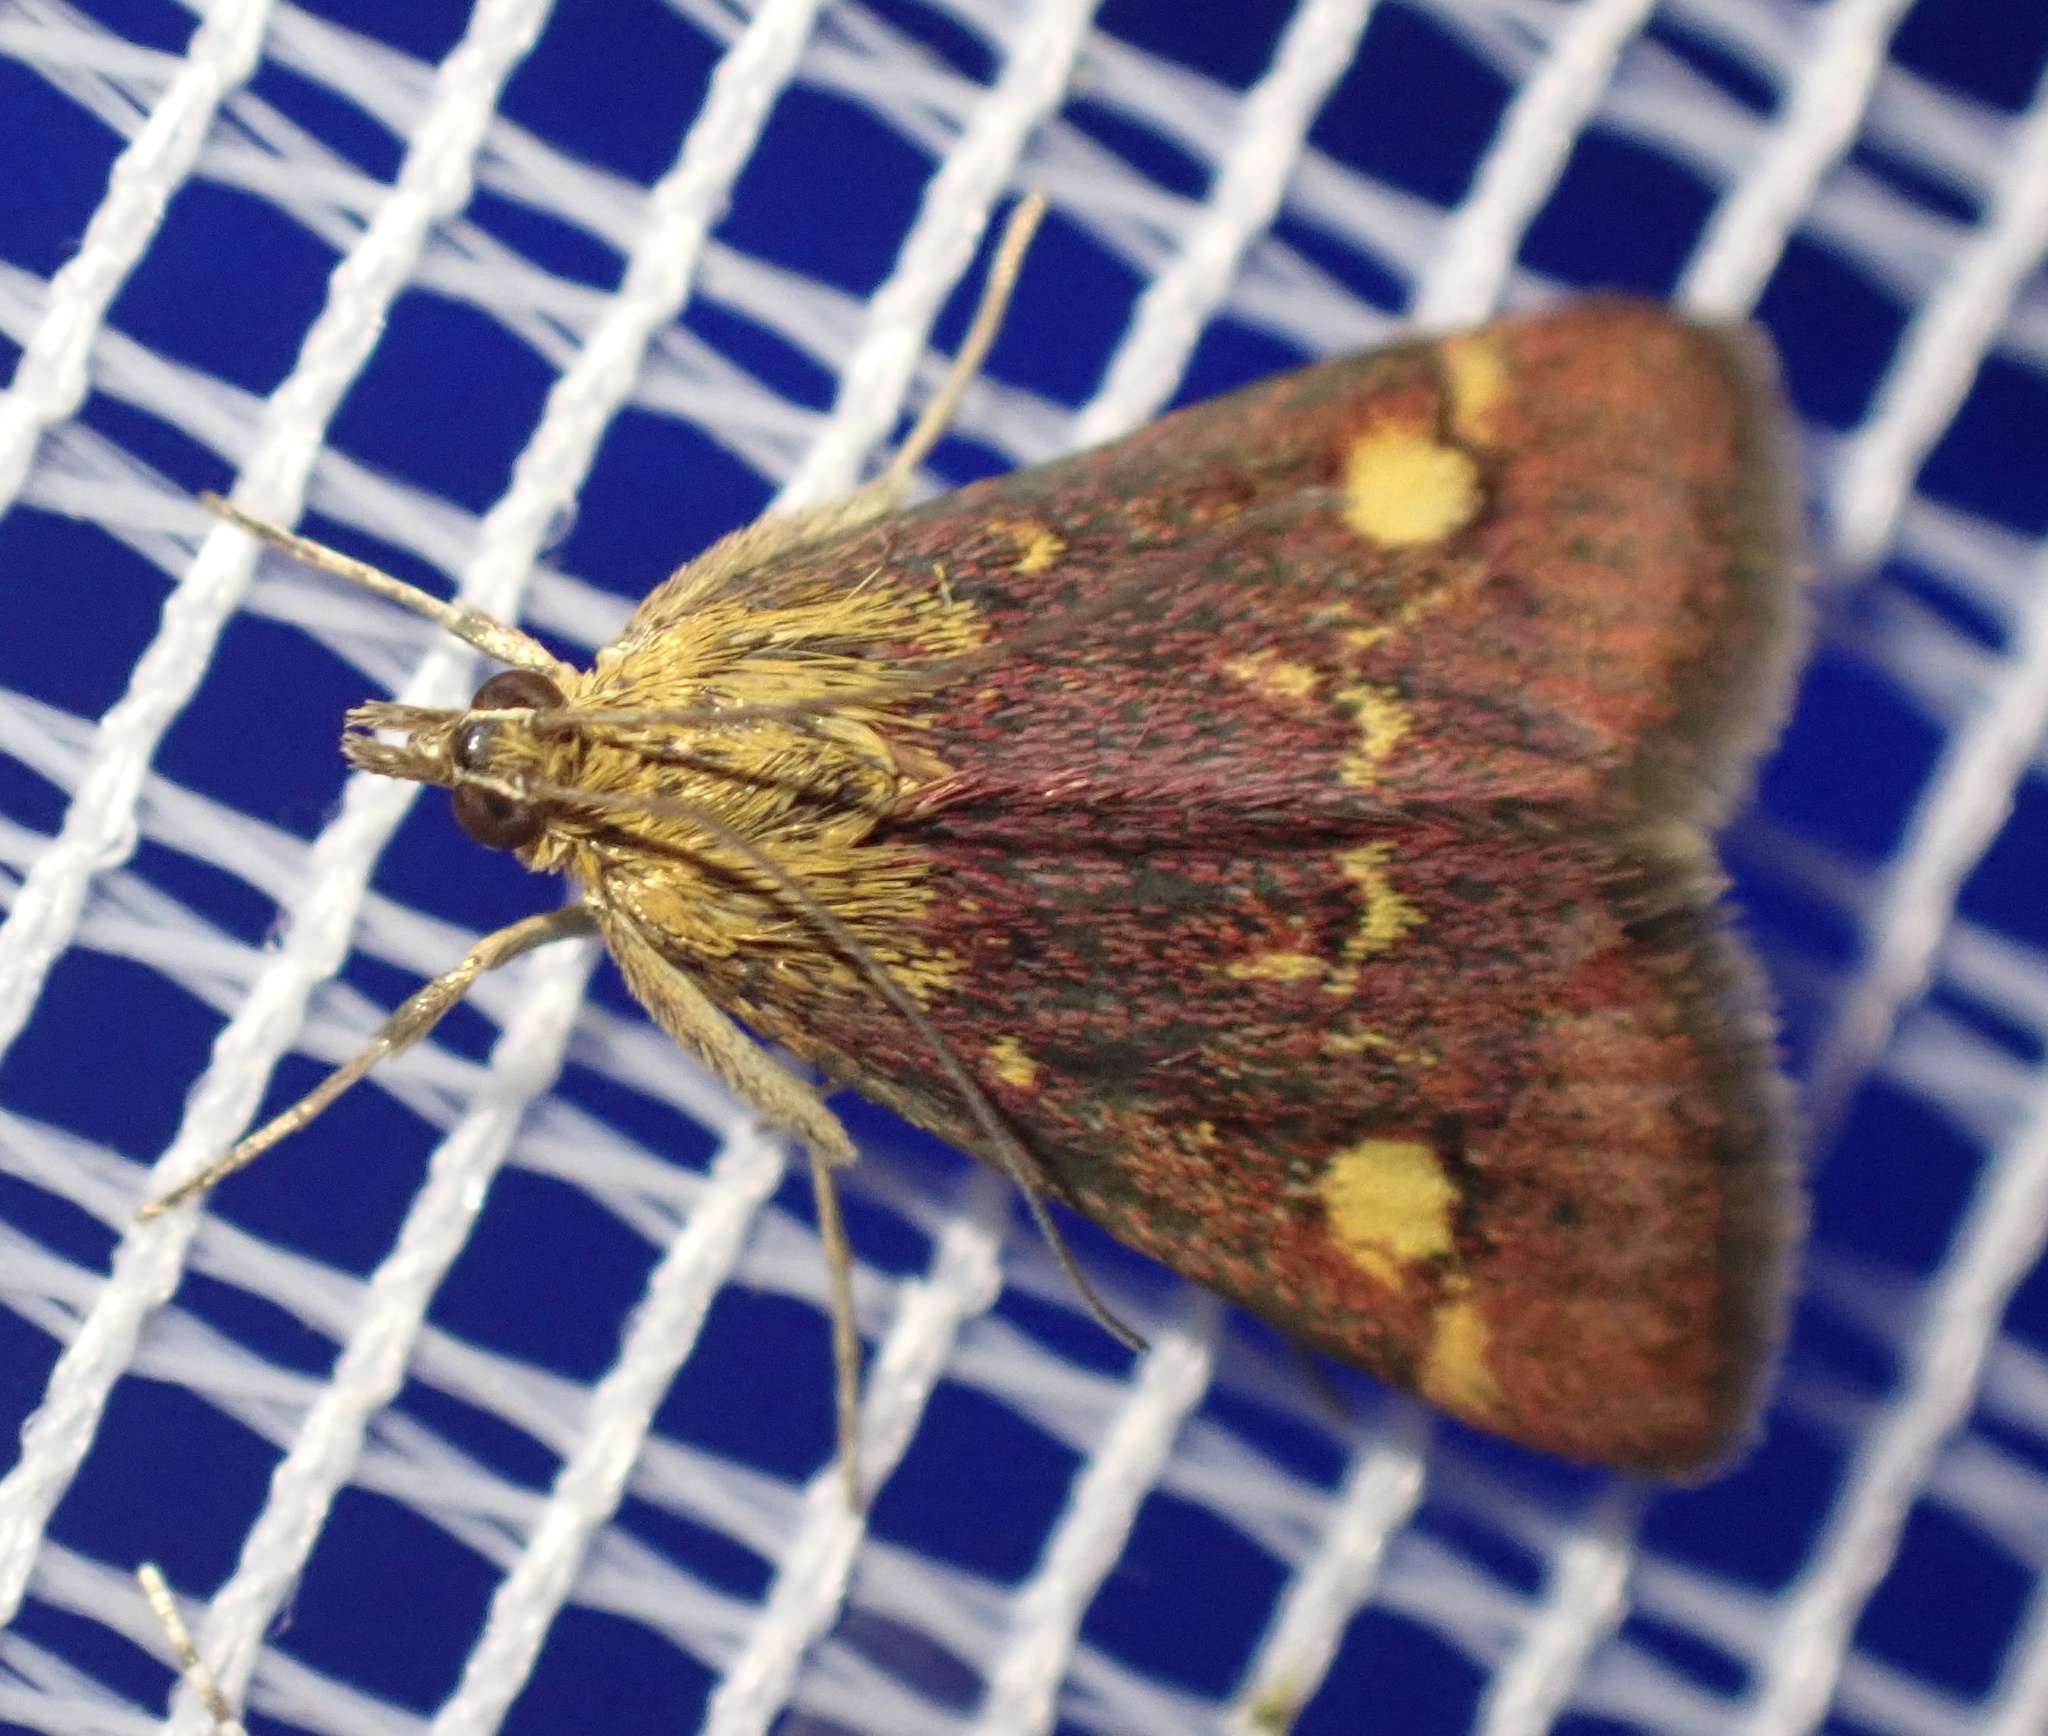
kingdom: Animalia
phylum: Arthropoda
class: Insecta
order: Lepidoptera
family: Crambidae
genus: Pyrausta
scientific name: Pyrausta aurata
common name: Small purple & gold
